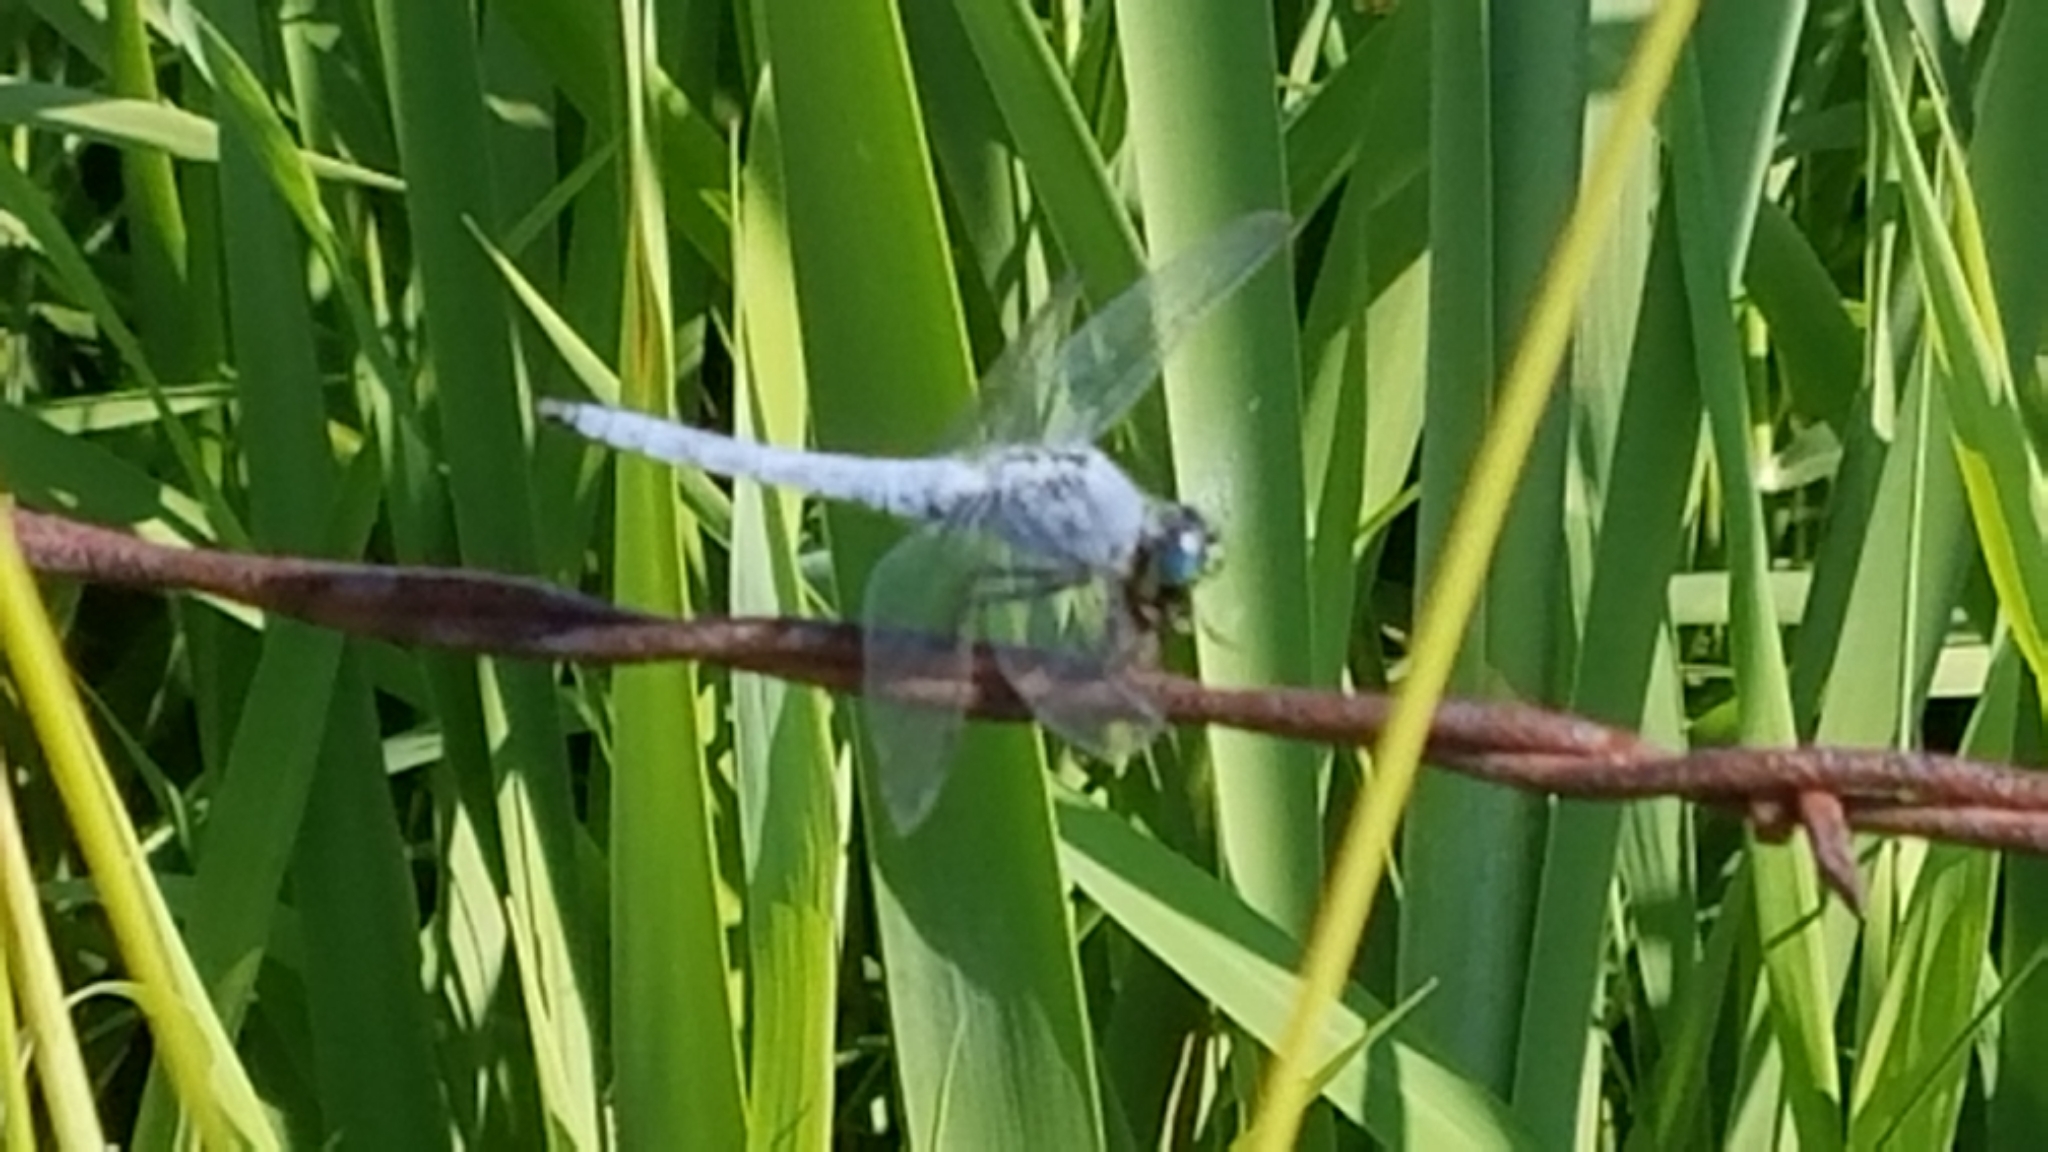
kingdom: Animalia
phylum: Arthropoda
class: Insecta
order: Odonata
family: Libellulidae
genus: Erythemis
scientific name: Erythemis collocata
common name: Western pondhawk
